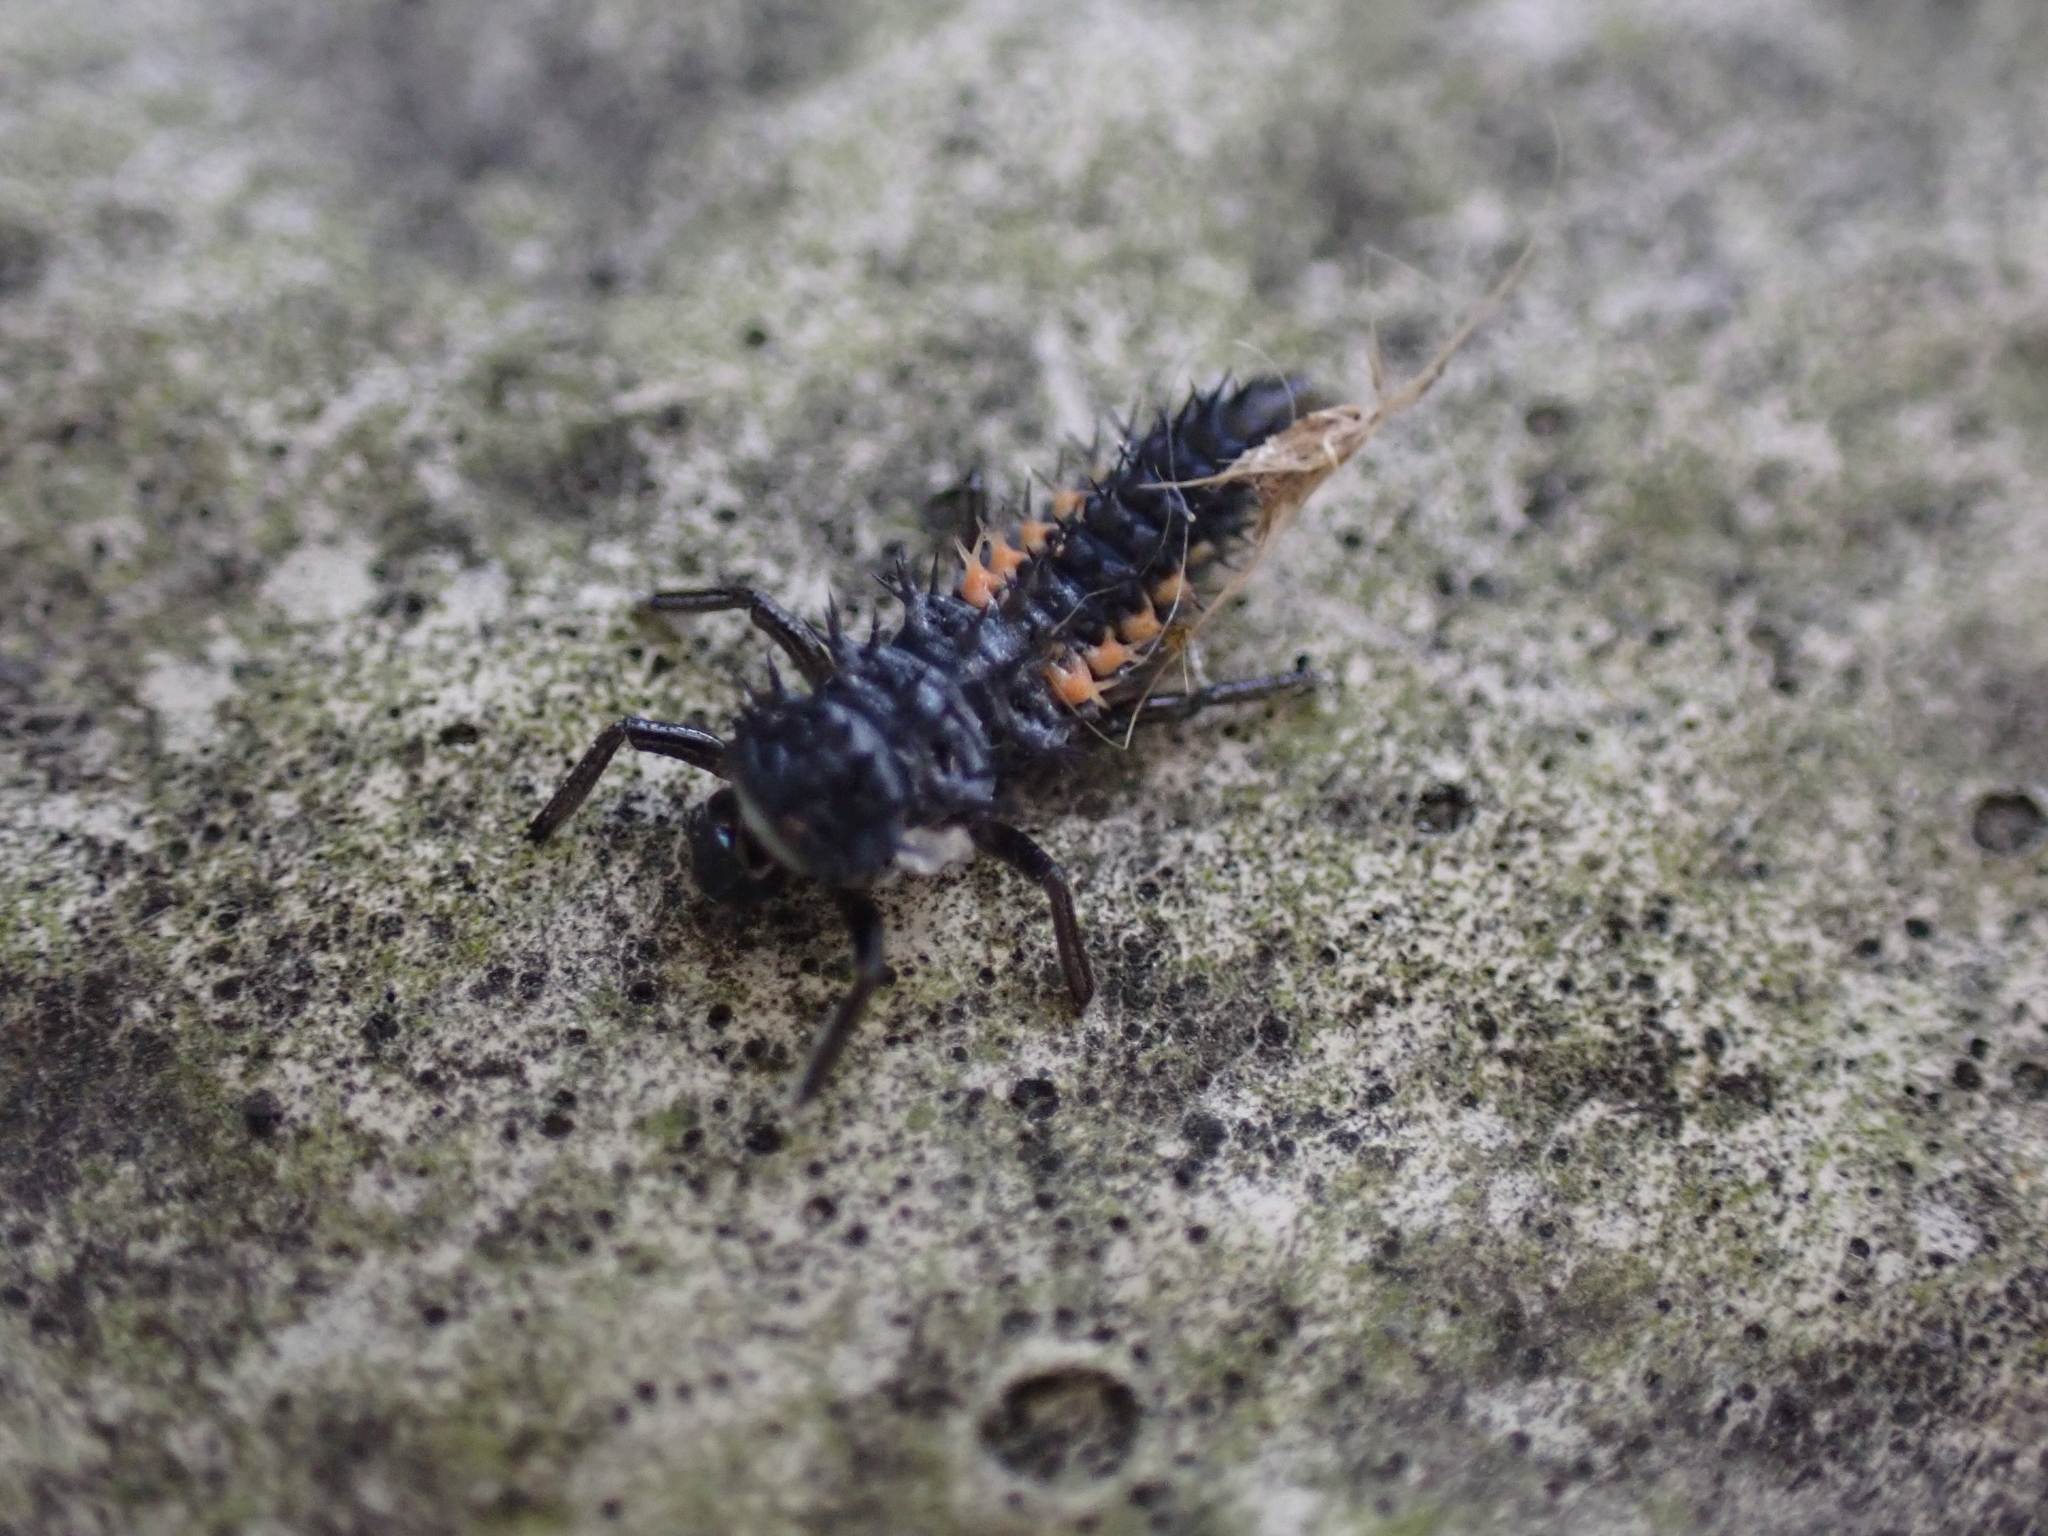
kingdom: Animalia
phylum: Arthropoda
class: Insecta
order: Coleoptera
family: Coccinellidae
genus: Harmonia
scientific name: Harmonia axyridis
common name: Harlequin ladybird
